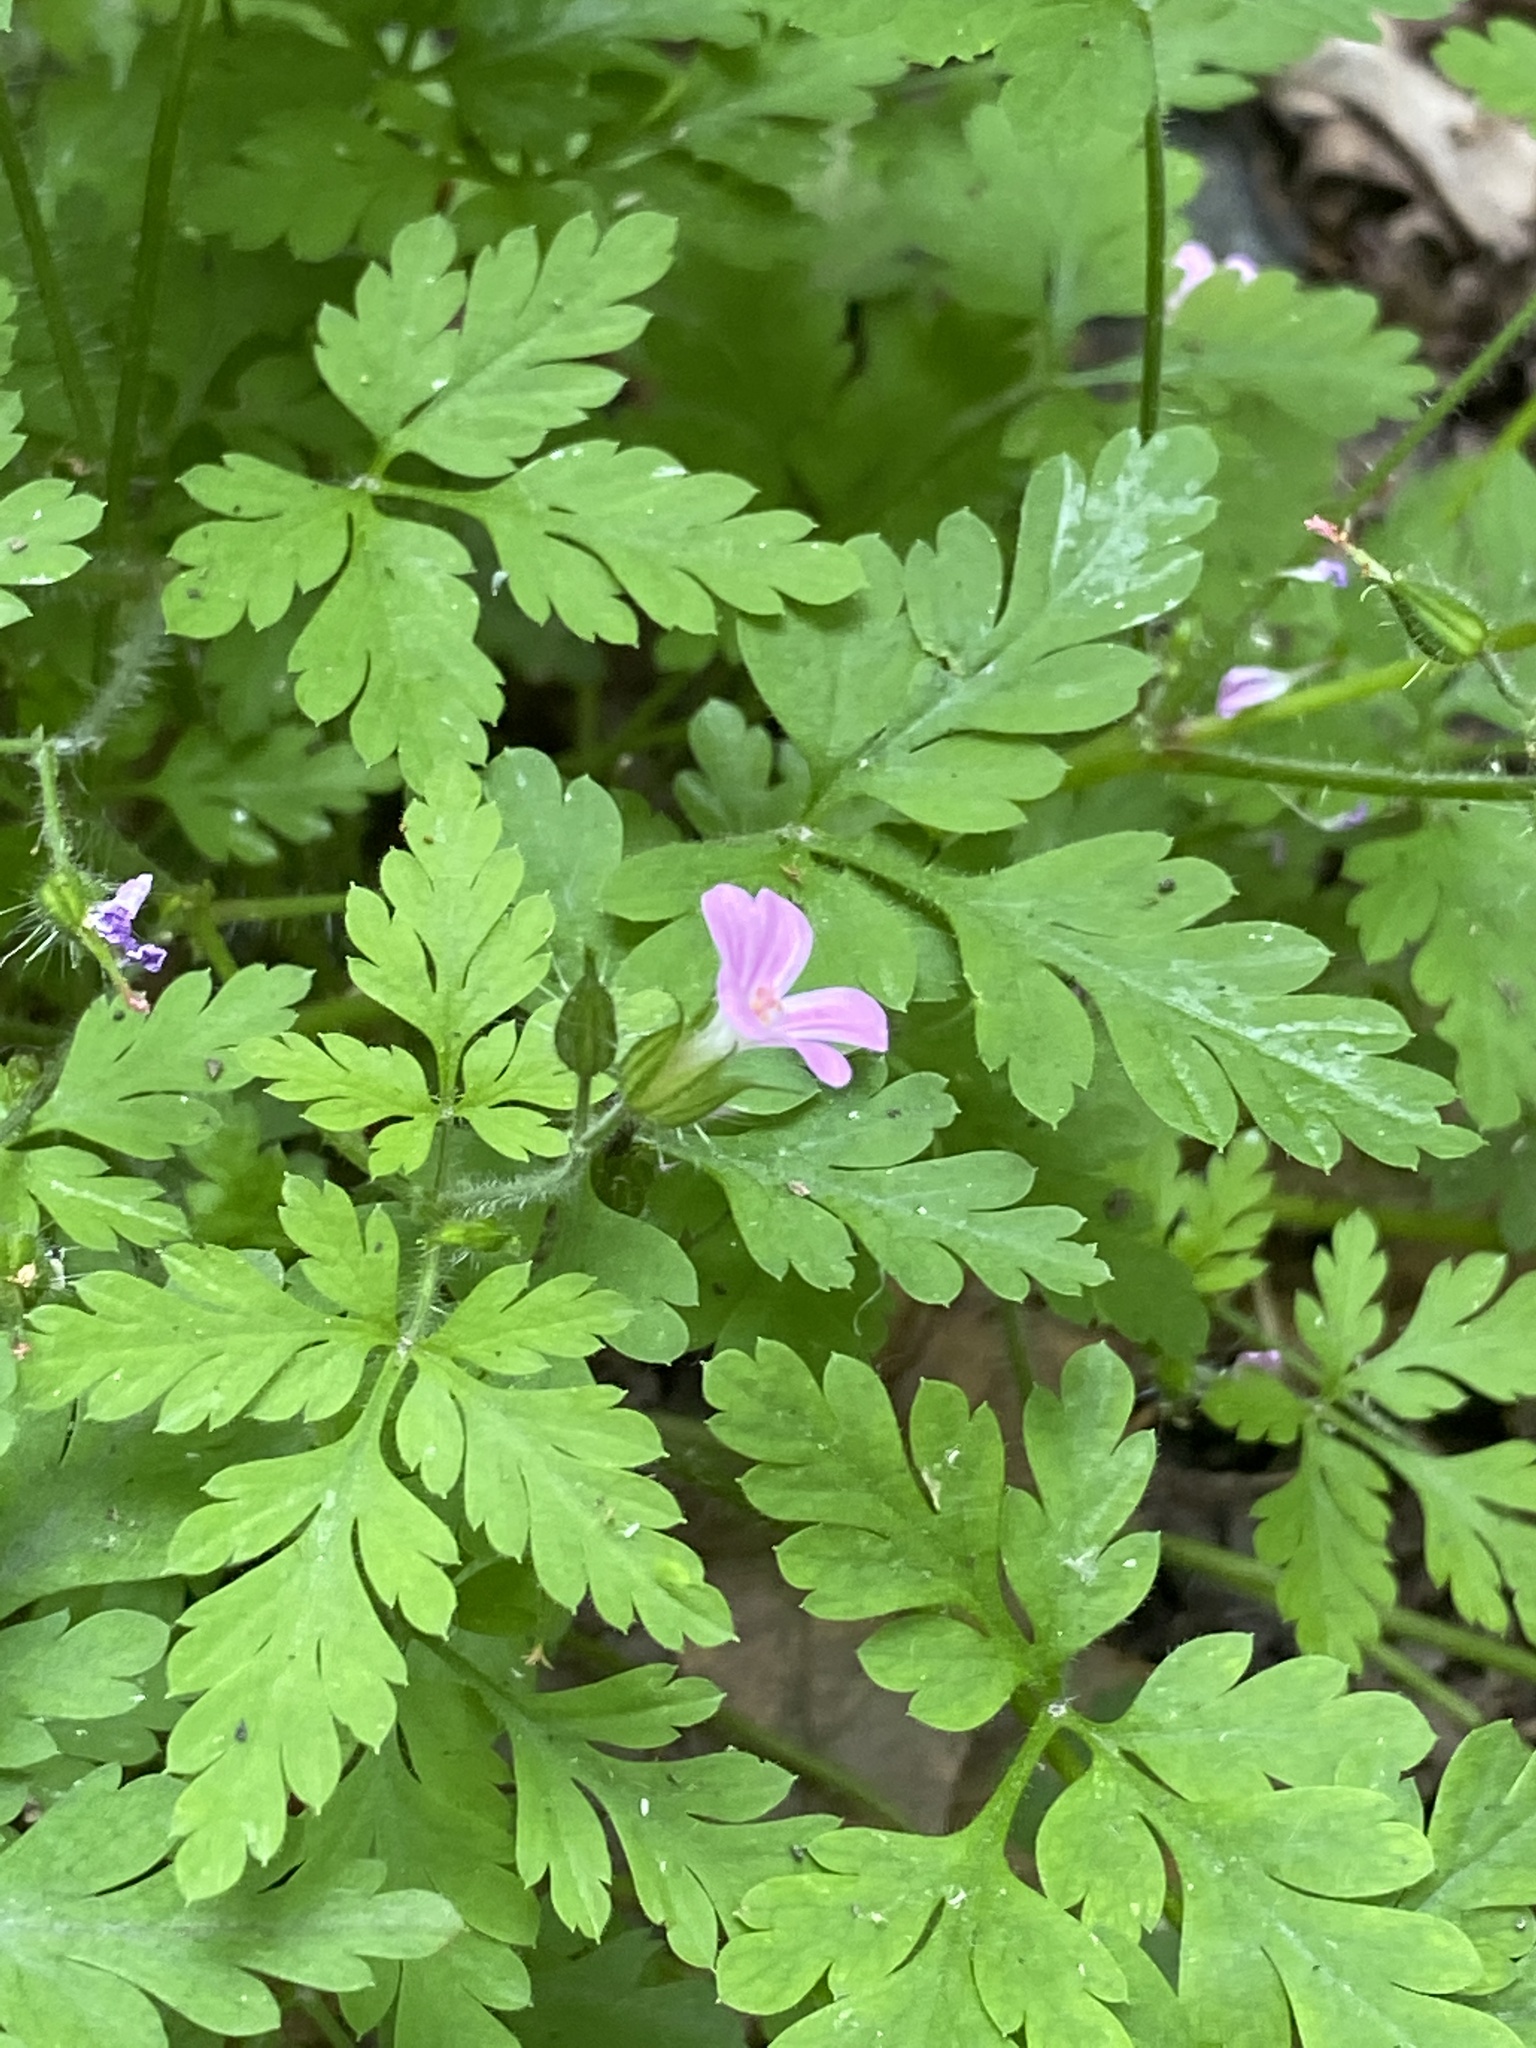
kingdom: Plantae
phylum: Tracheophyta
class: Magnoliopsida
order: Geraniales
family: Geraniaceae
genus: Geranium
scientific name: Geranium robertianum
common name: Herb-robert
